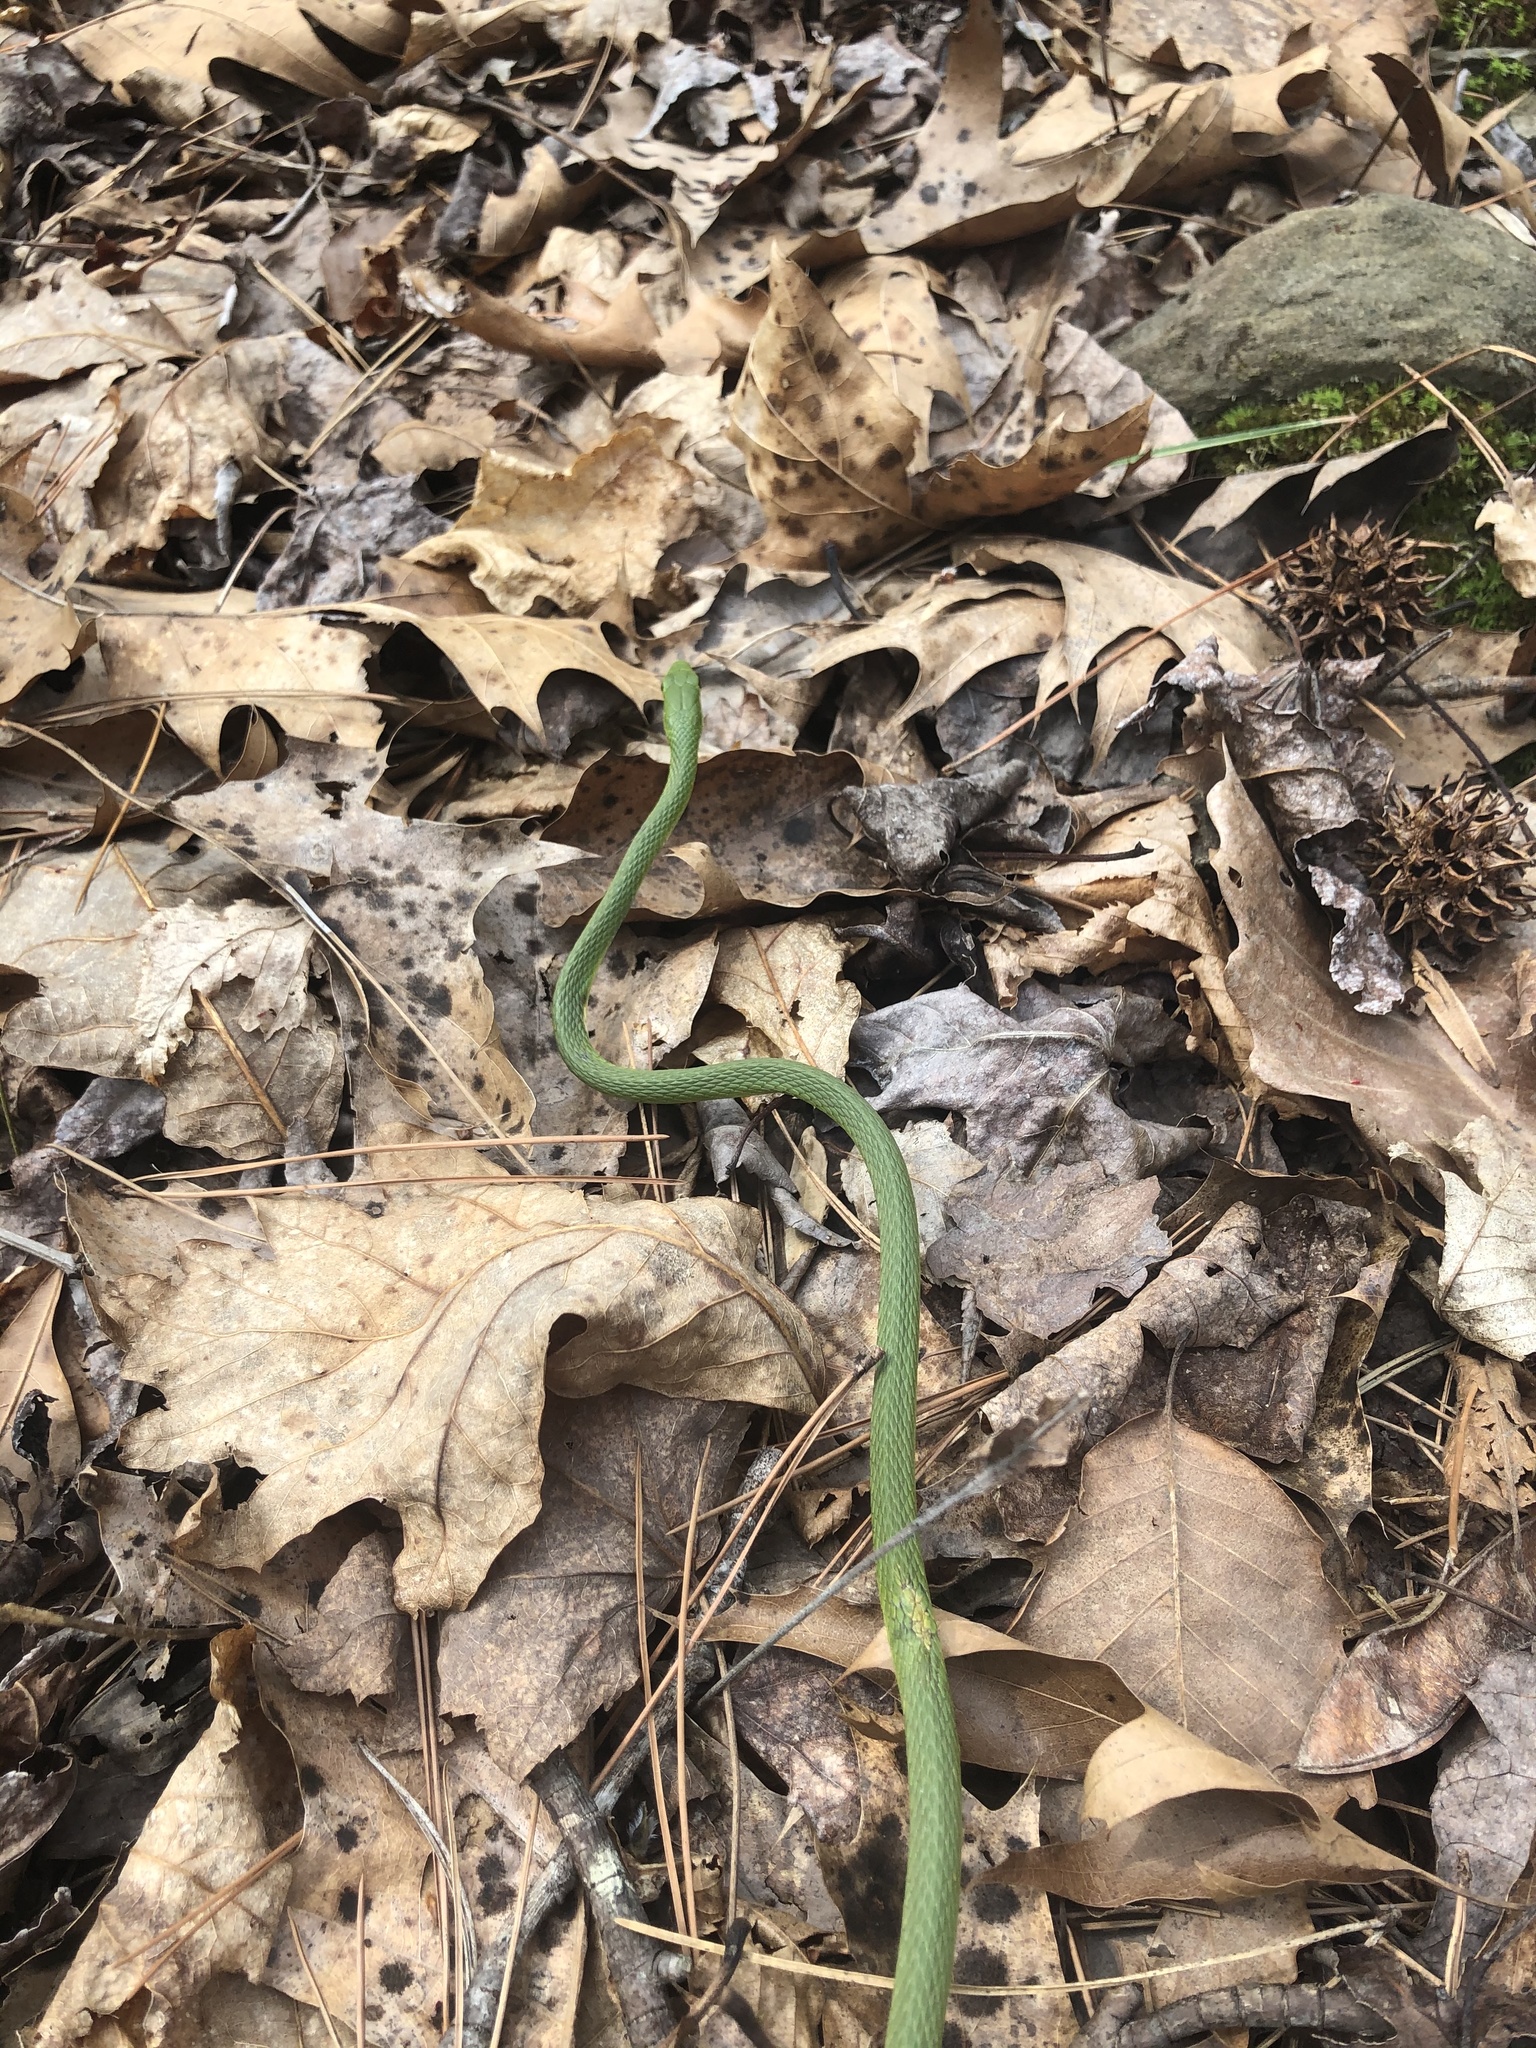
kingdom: Animalia
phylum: Chordata
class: Squamata
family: Colubridae
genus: Opheodrys
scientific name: Opheodrys aestivus
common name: Rough greensnake
